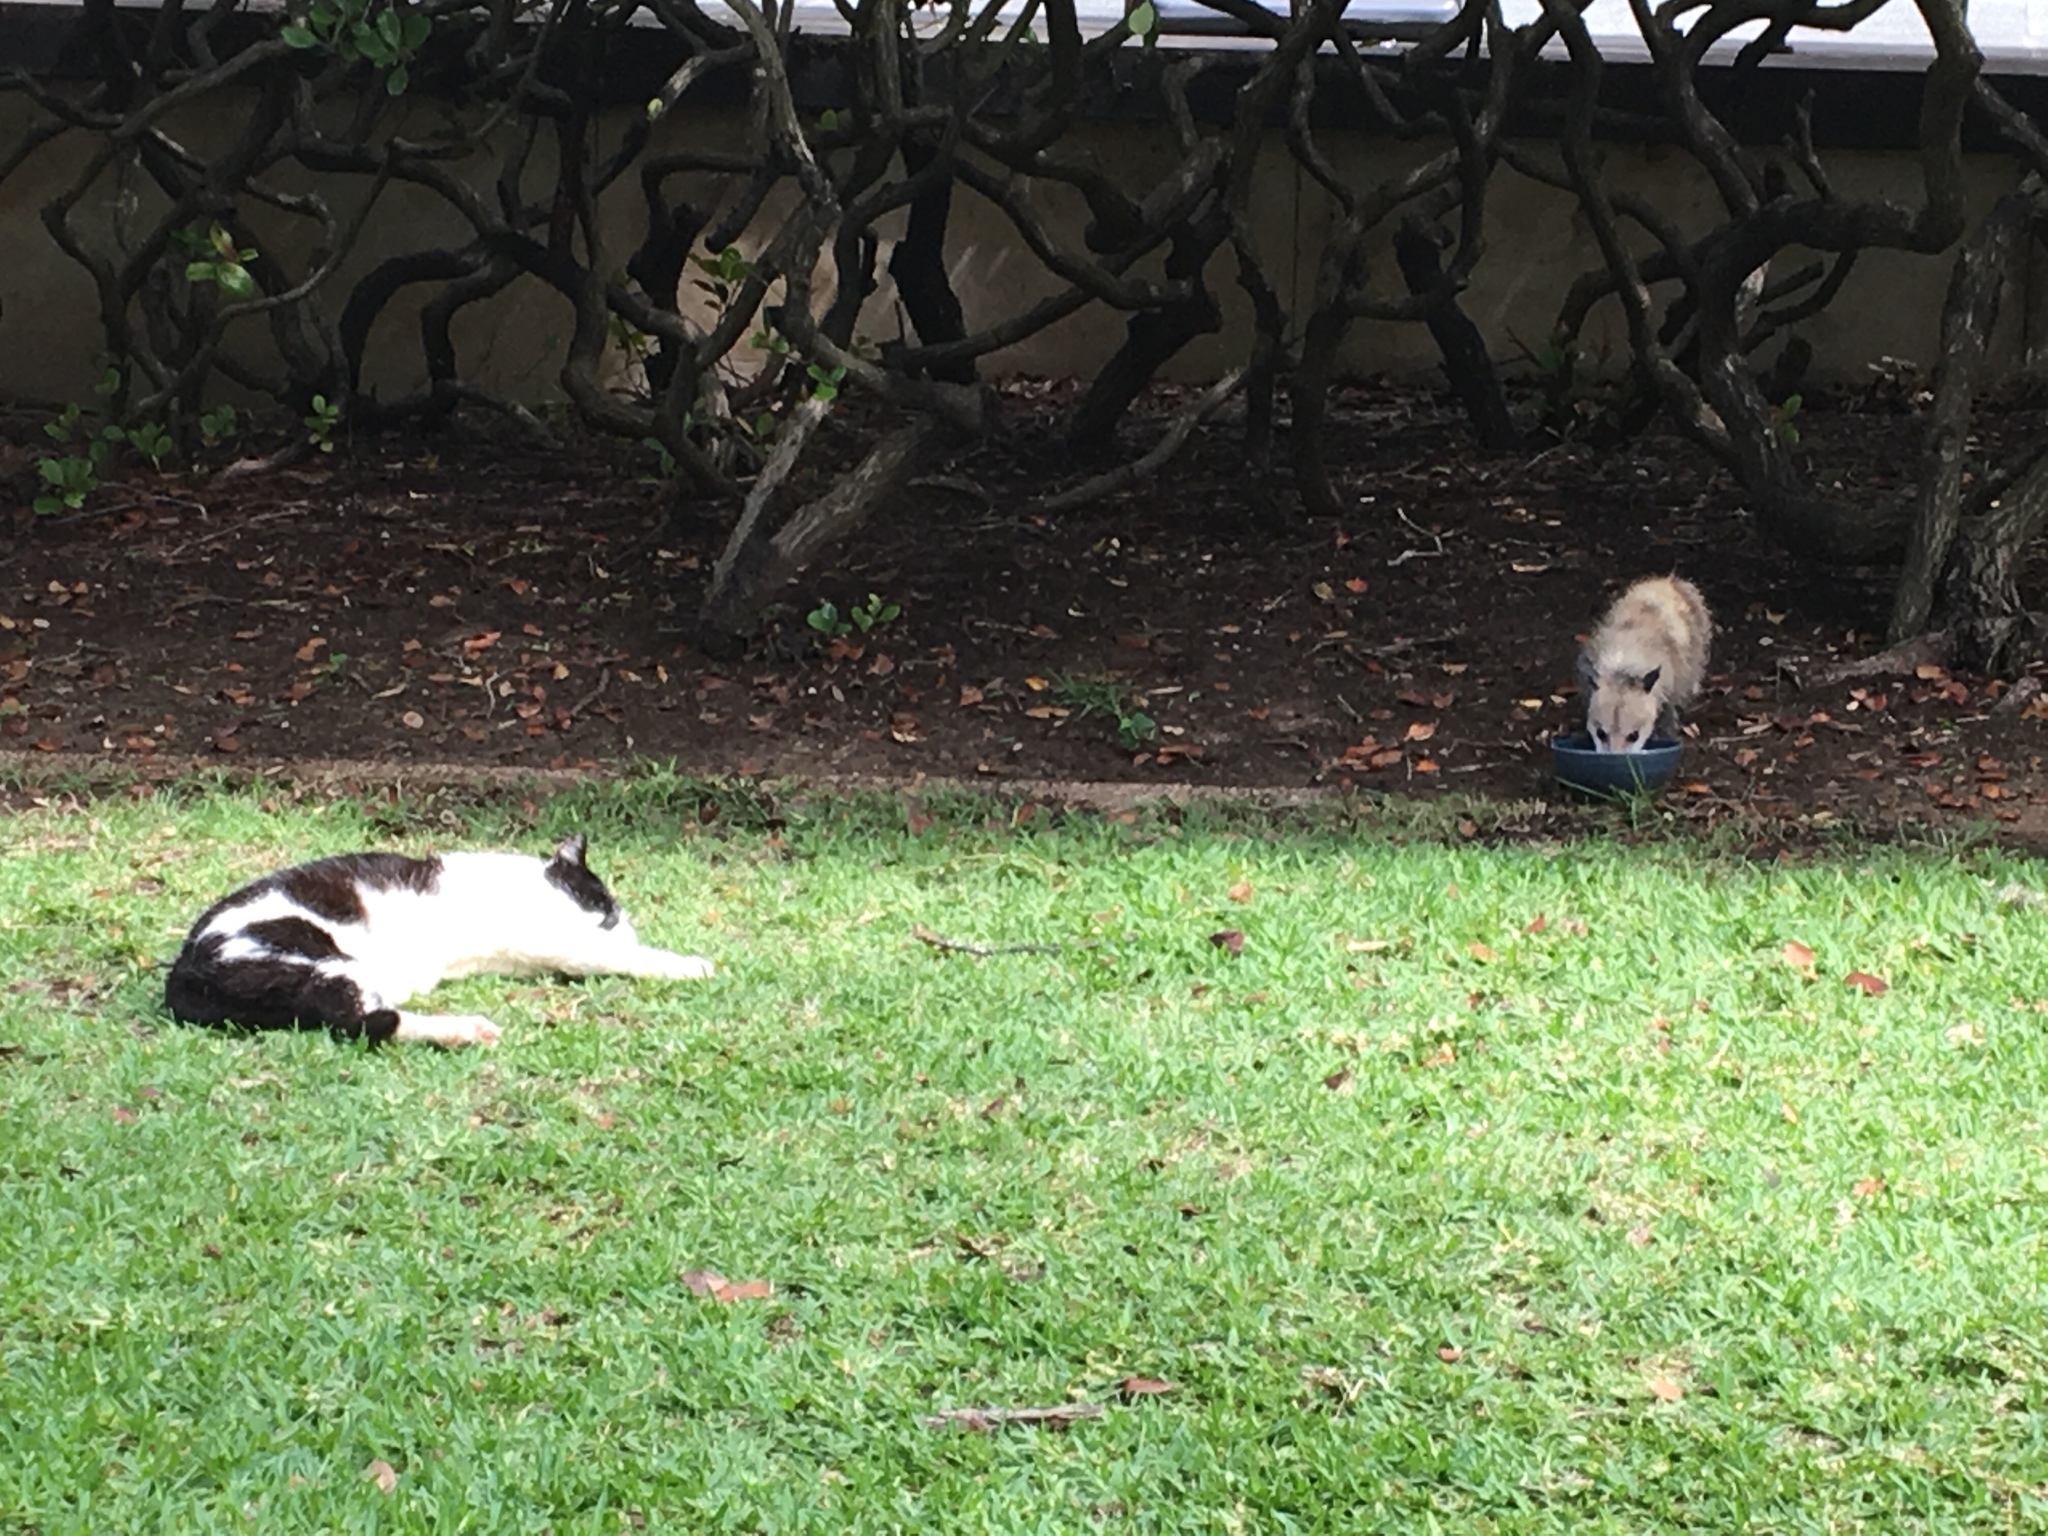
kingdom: Animalia
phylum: Chordata
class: Mammalia
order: Didelphimorphia
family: Didelphidae
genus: Didelphis
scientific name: Didelphis virginiana
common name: Virginia opossum
